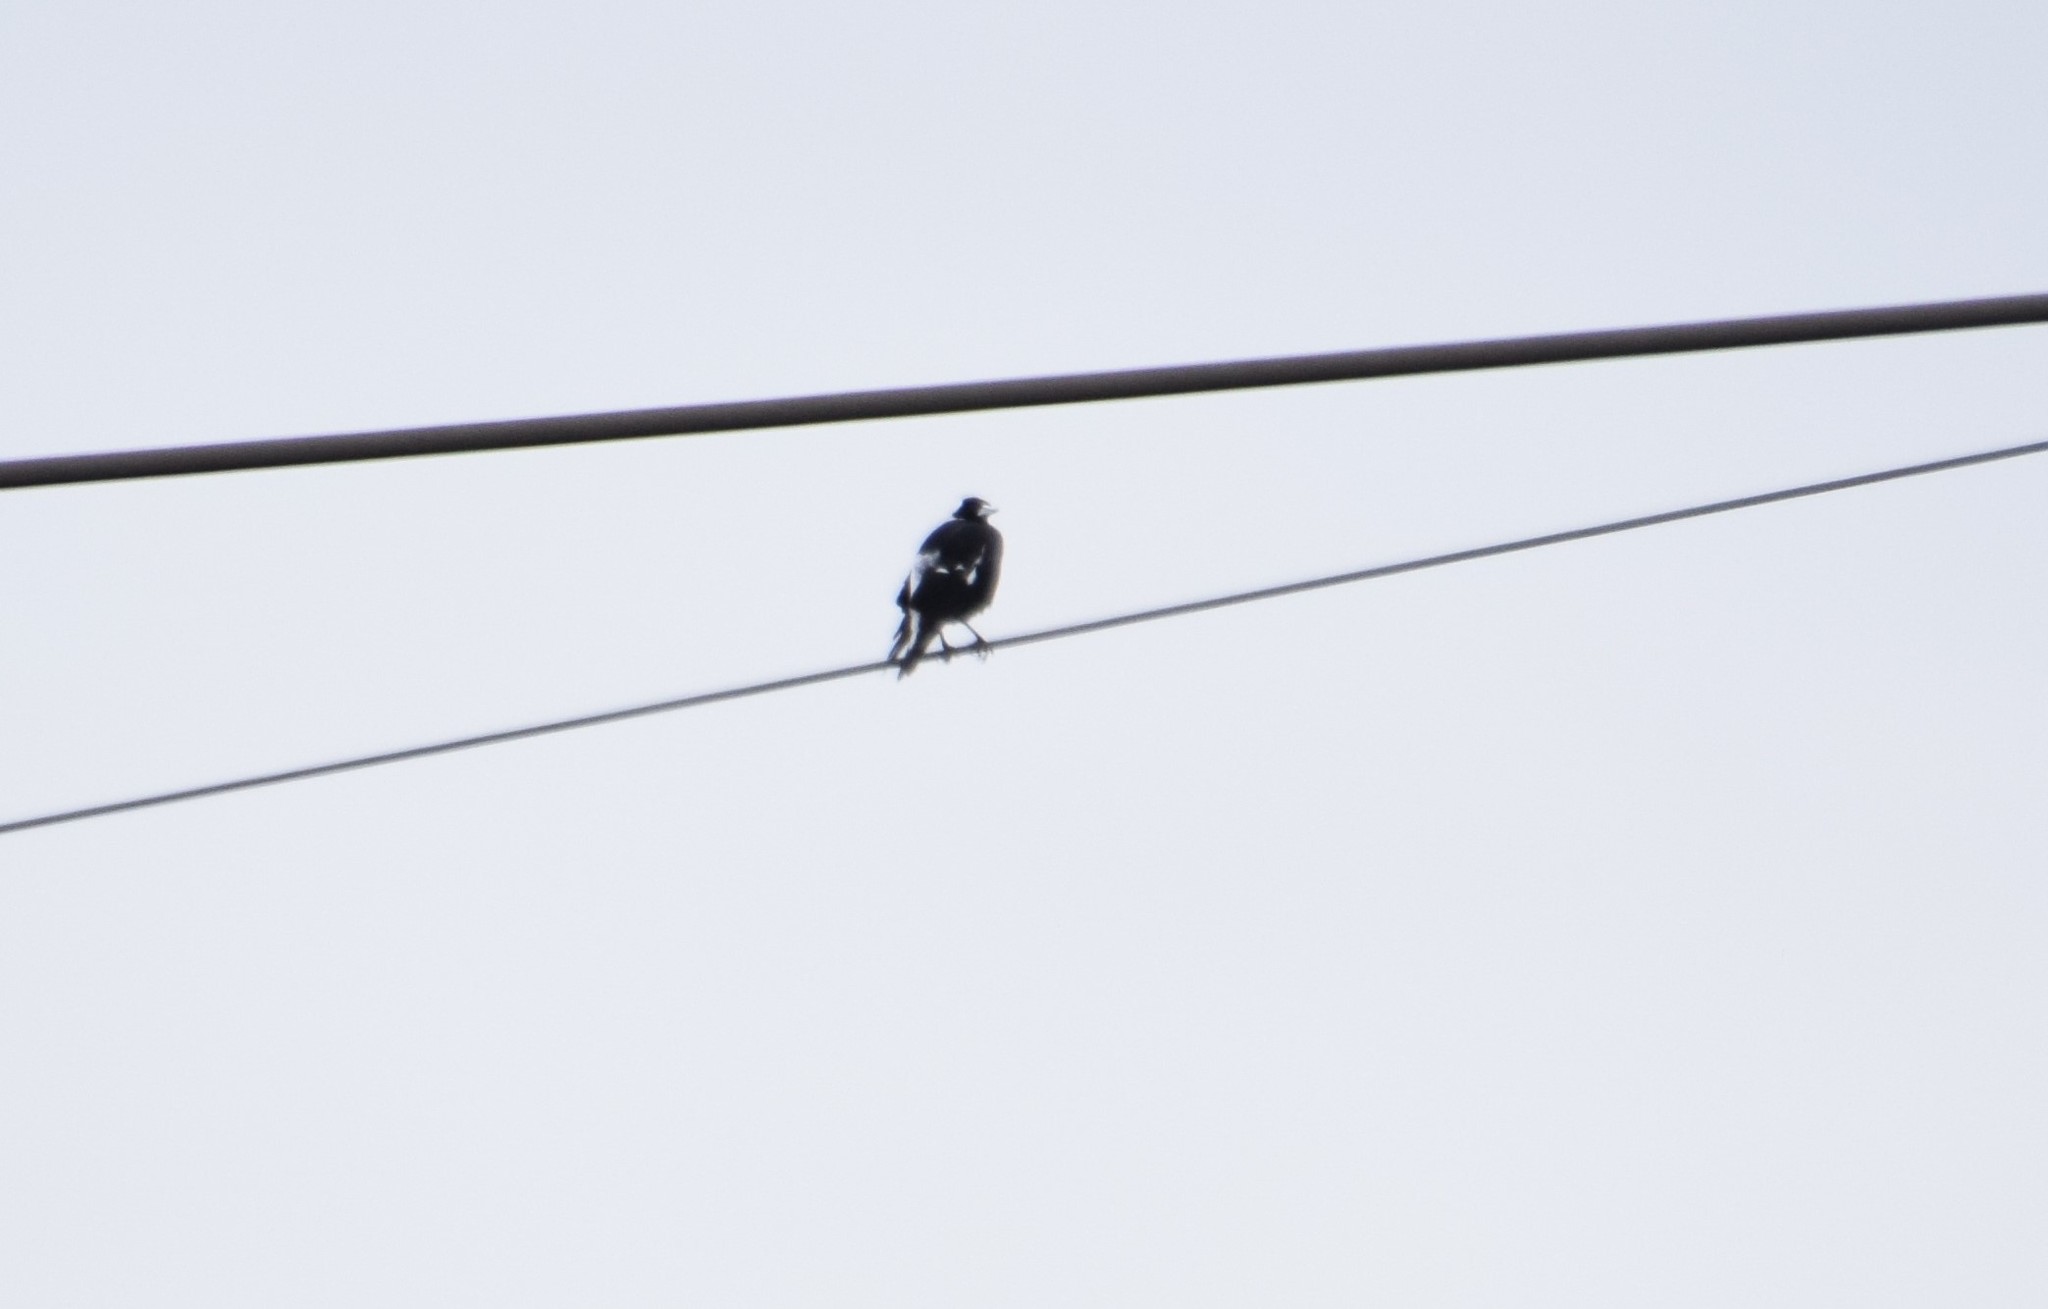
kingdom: Animalia
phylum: Chordata
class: Aves
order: Passeriformes
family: Cracticidae
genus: Gymnorhina
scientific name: Gymnorhina tibicen
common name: Australian magpie
